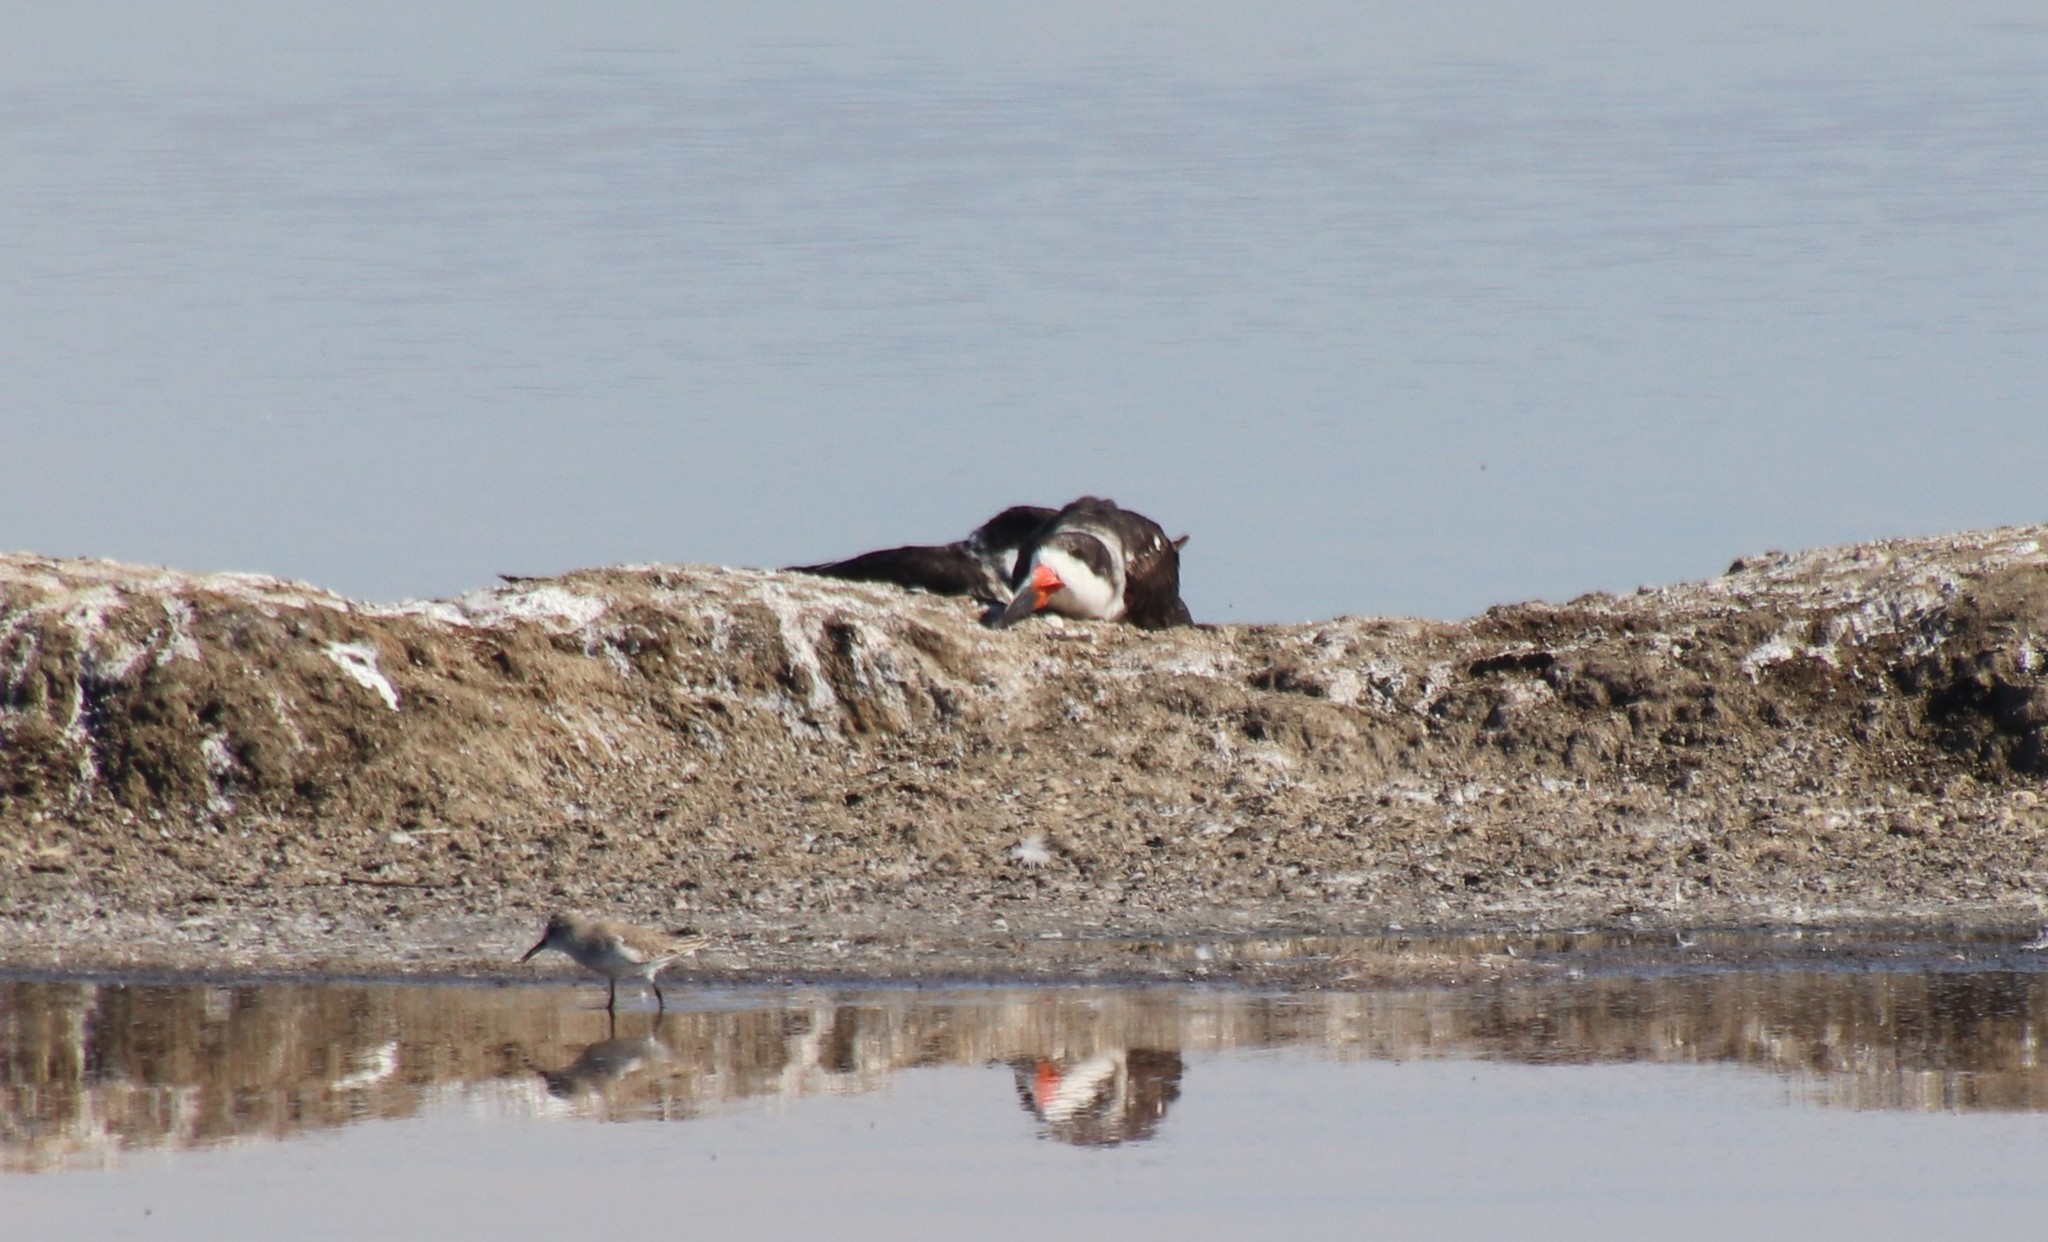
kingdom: Animalia
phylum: Chordata
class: Aves
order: Charadriiformes
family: Laridae
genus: Rynchops
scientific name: Rynchops niger
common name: Black skimmer
